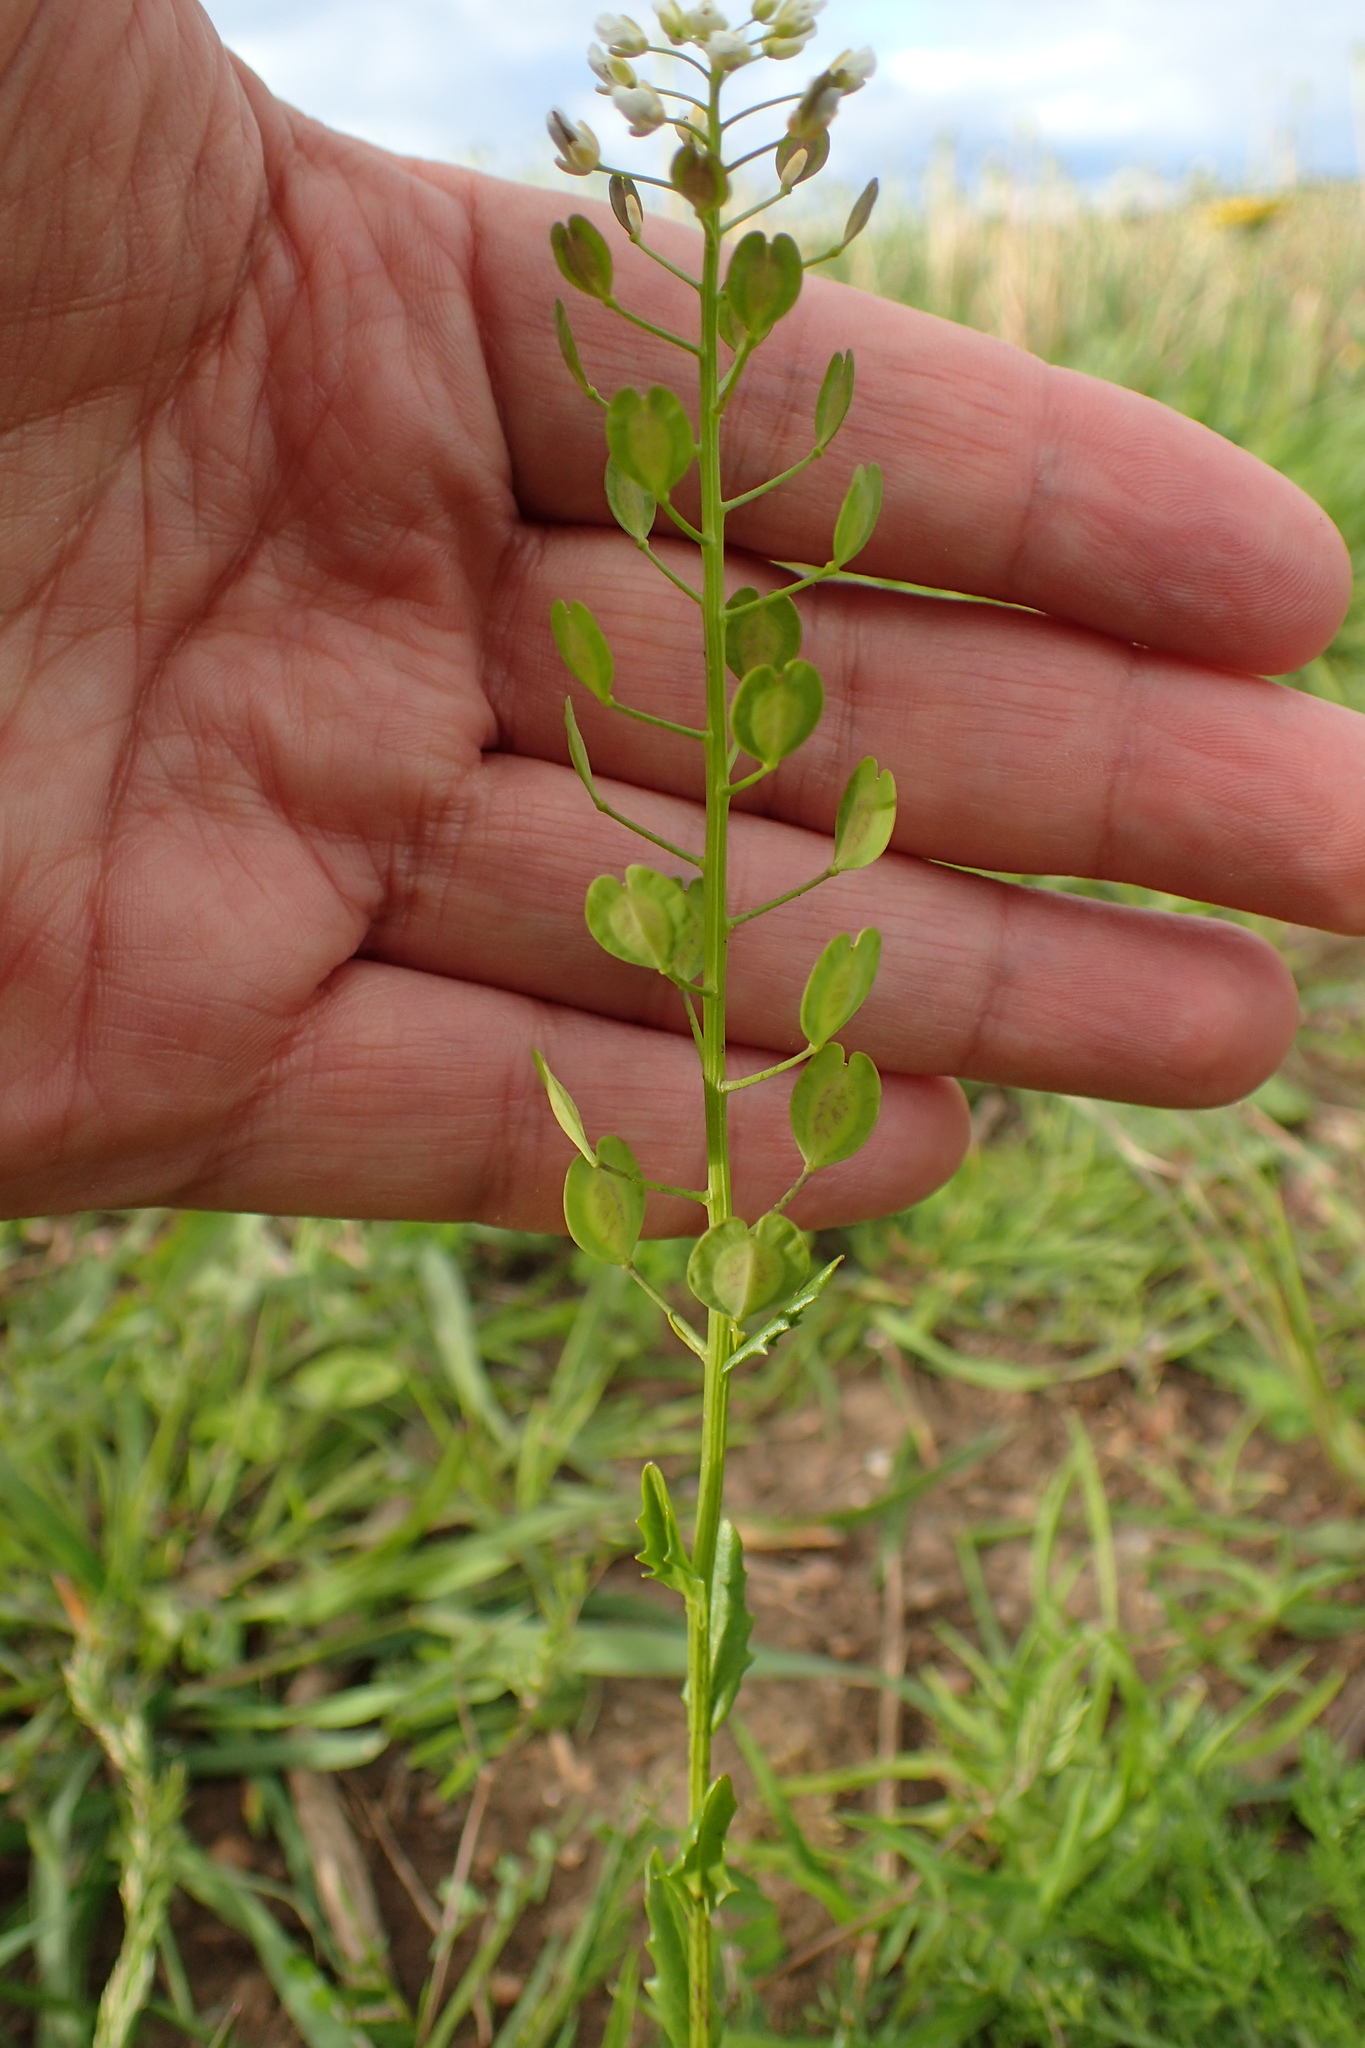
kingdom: Plantae
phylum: Tracheophyta
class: Magnoliopsida
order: Brassicales
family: Brassicaceae
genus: Thlaspi
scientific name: Thlaspi arvense
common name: Field pennycress
